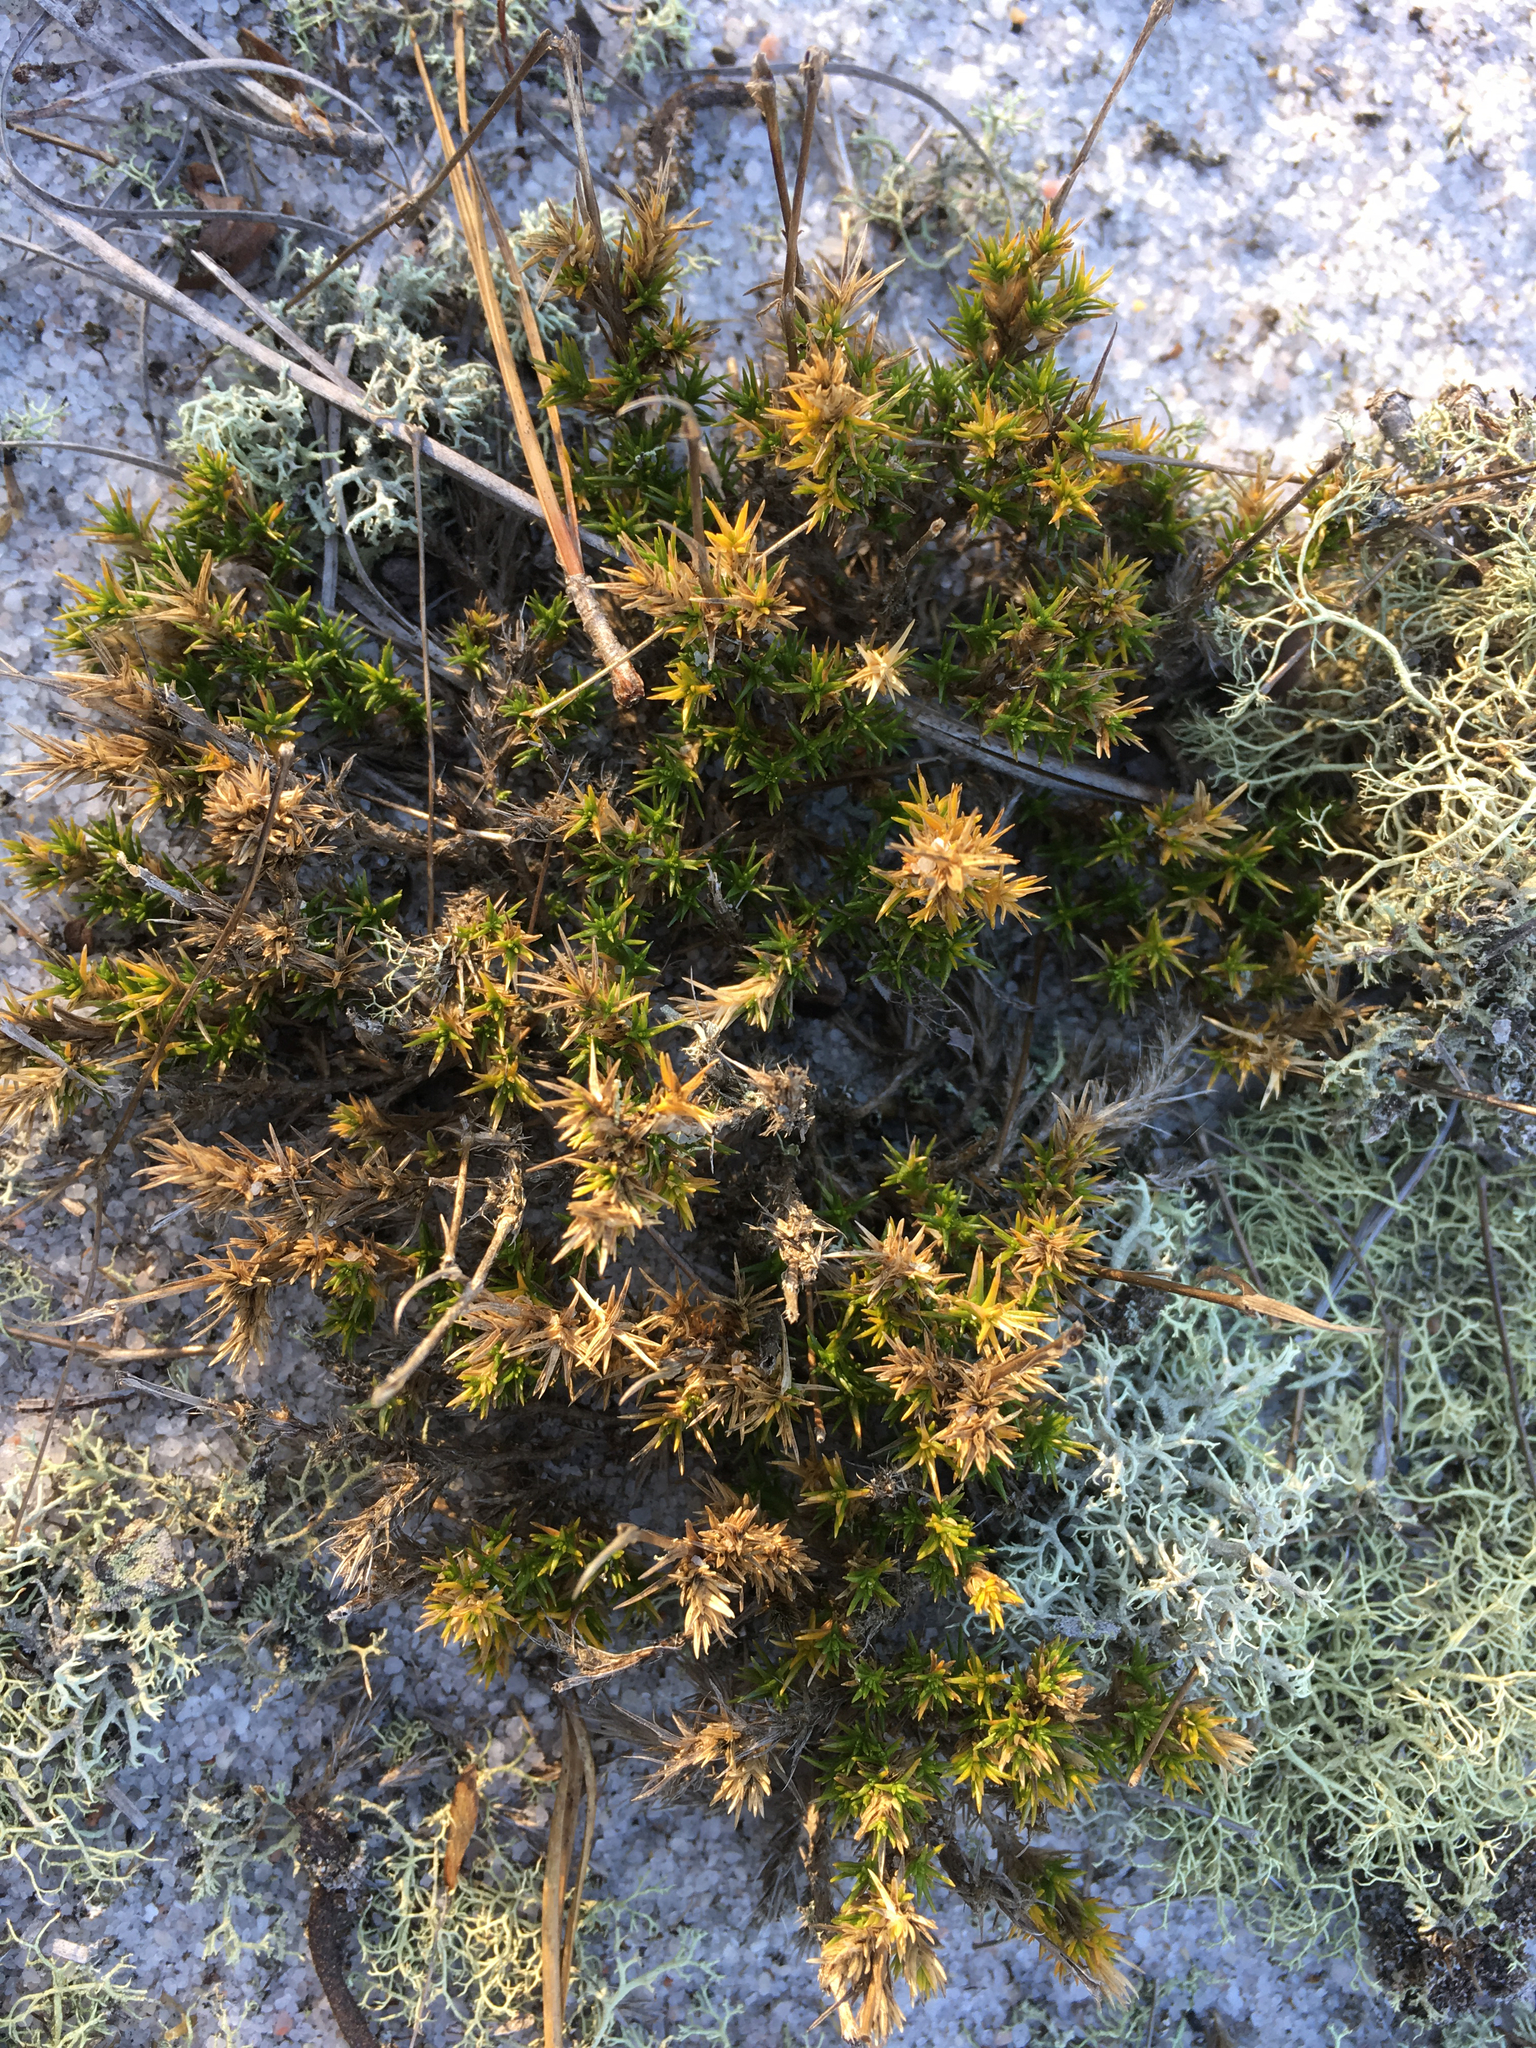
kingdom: Plantae
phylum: Tracheophyta
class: Magnoliopsida
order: Caryophyllales
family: Caryophyllaceae
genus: Geocarpon
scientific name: Geocarpon carolinianum
